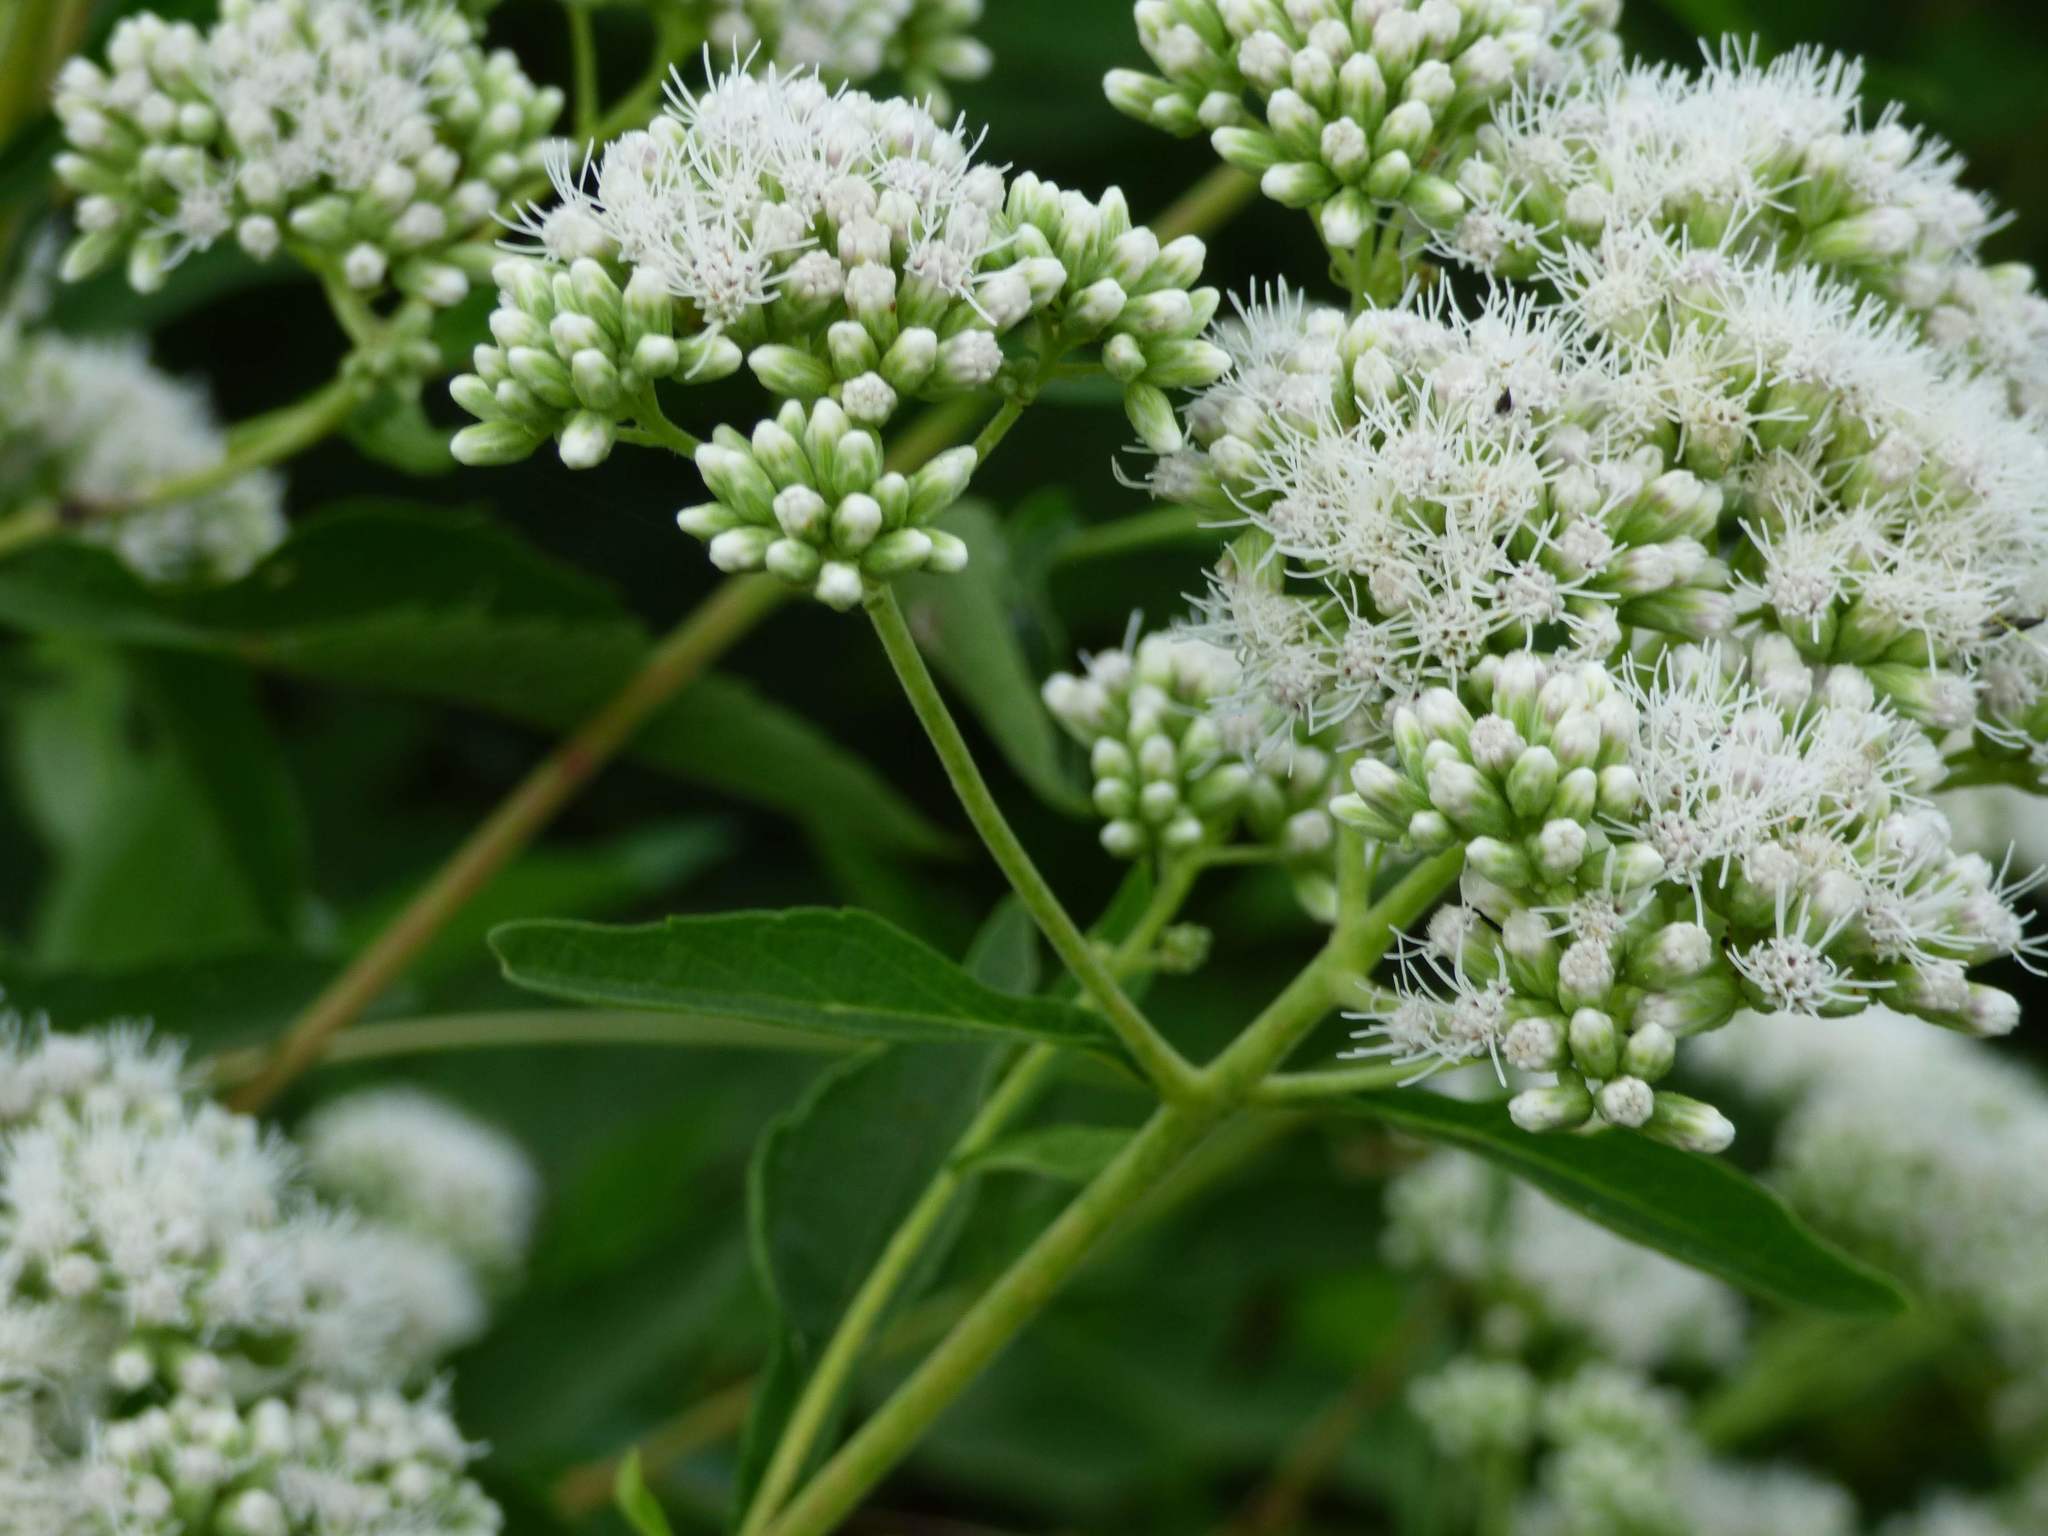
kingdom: Plantae
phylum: Tracheophyta
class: Magnoliopsida
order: Asterales
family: Asteraceae
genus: Austroeupatorium
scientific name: Austroeupatorium inulifolium
